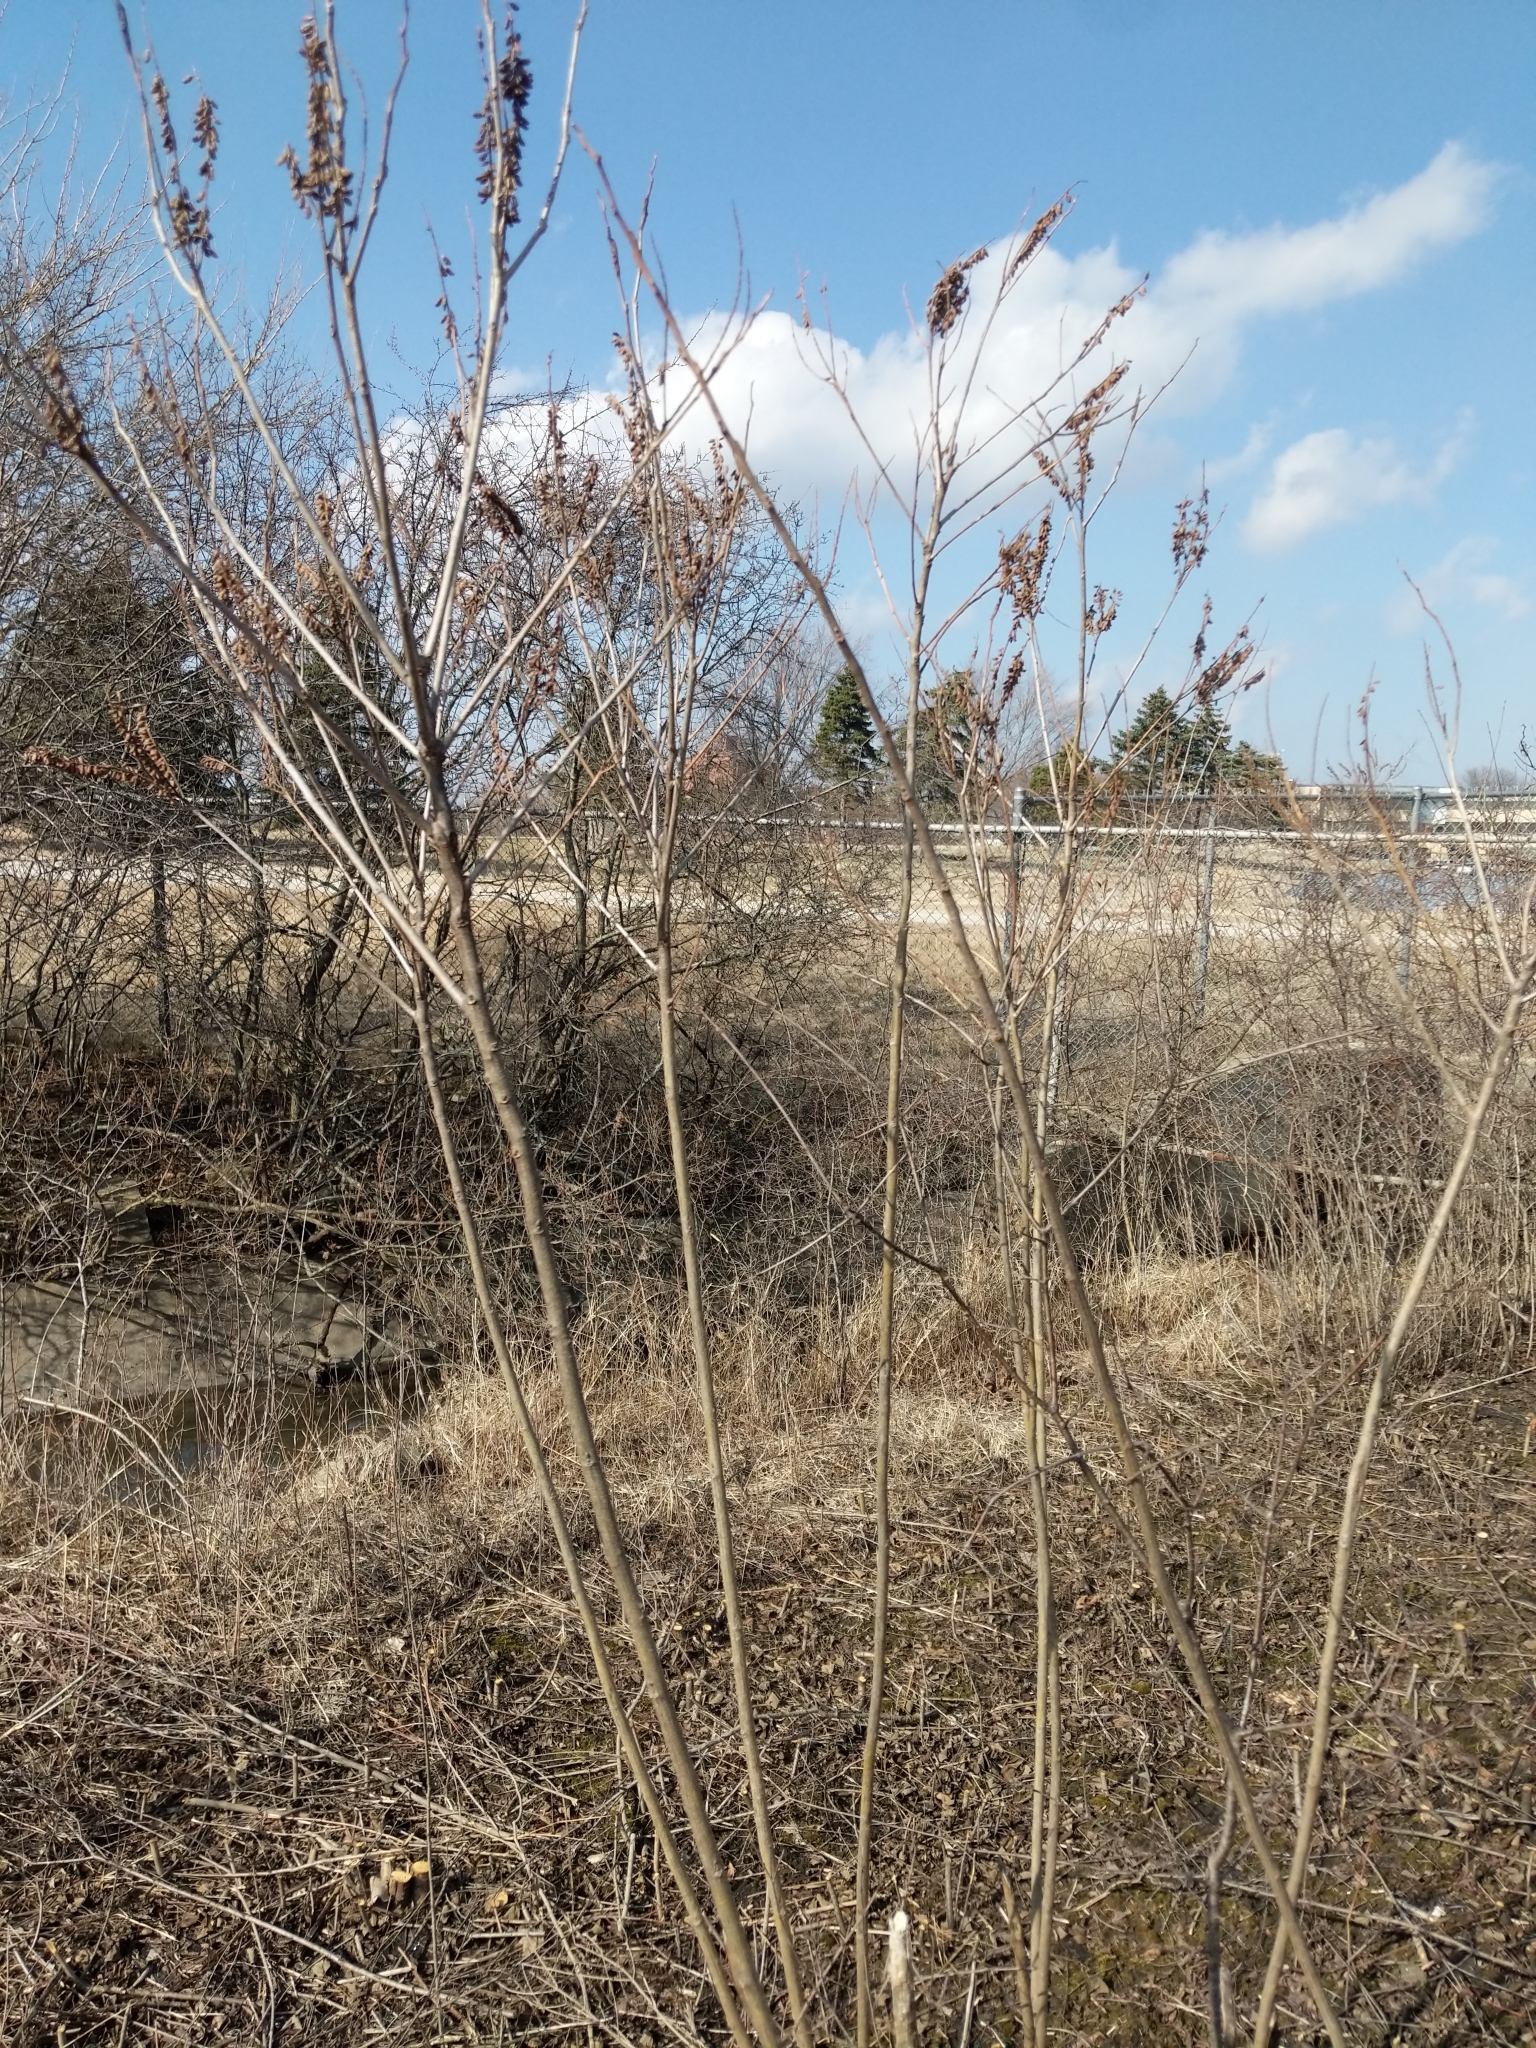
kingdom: Plantae
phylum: Tracheophyta
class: Magnoliopsida
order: Fabales
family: Fabaceae
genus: Amorpha
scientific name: Amorpha fruticosa
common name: False indigo
